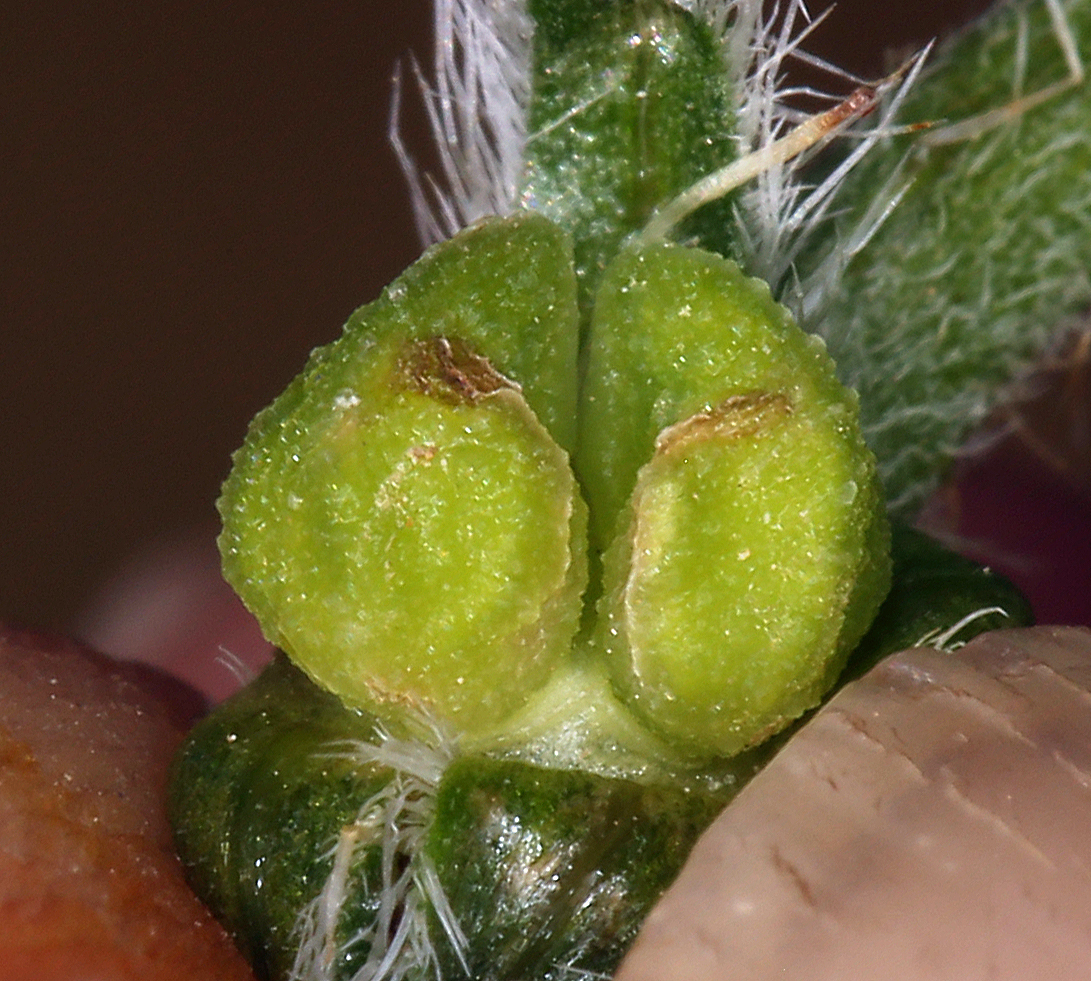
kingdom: Plantae
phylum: Tracheophyta
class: Magnoliopsida
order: Boraginales
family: Boraginaceae
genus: Amsinckia
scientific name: Amsinckia menziesii
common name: Menzies' fiddleneck
